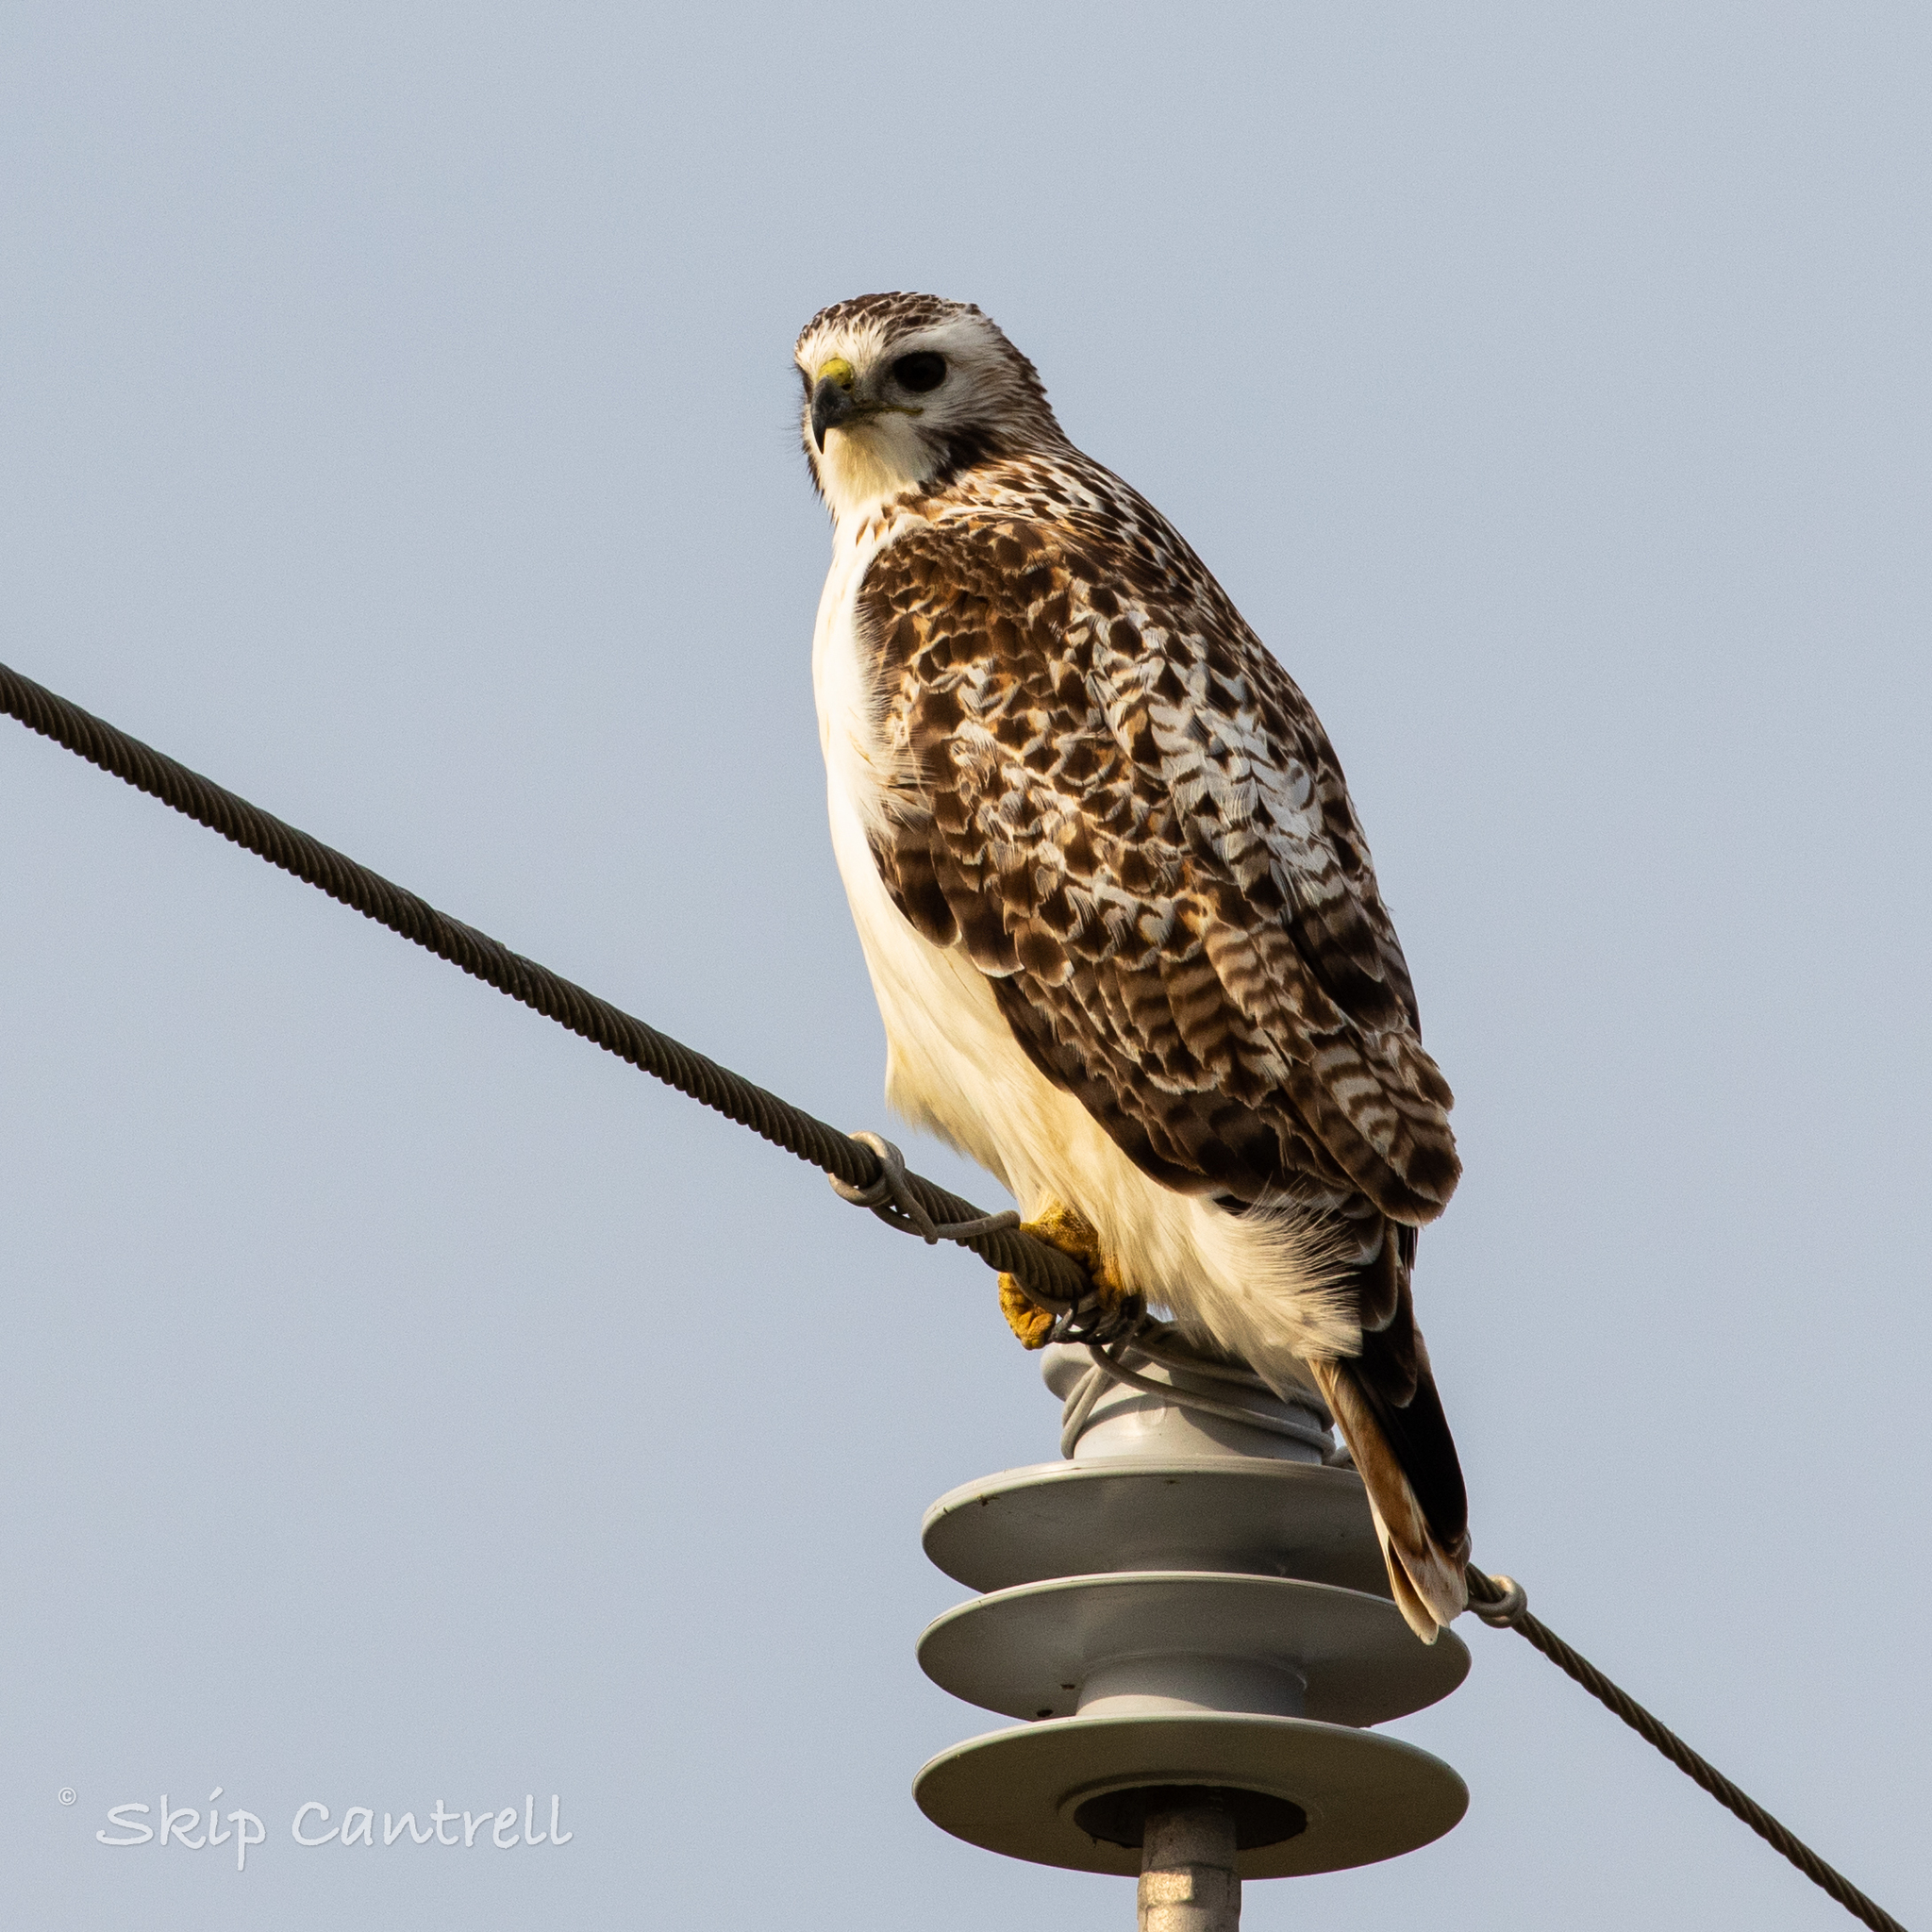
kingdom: Animalia
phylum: Chordata
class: Aves
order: Accipitriformes
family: Accipitridae
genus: Buteo
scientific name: Buteo jamaicensis
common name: Red-tailed hawk
